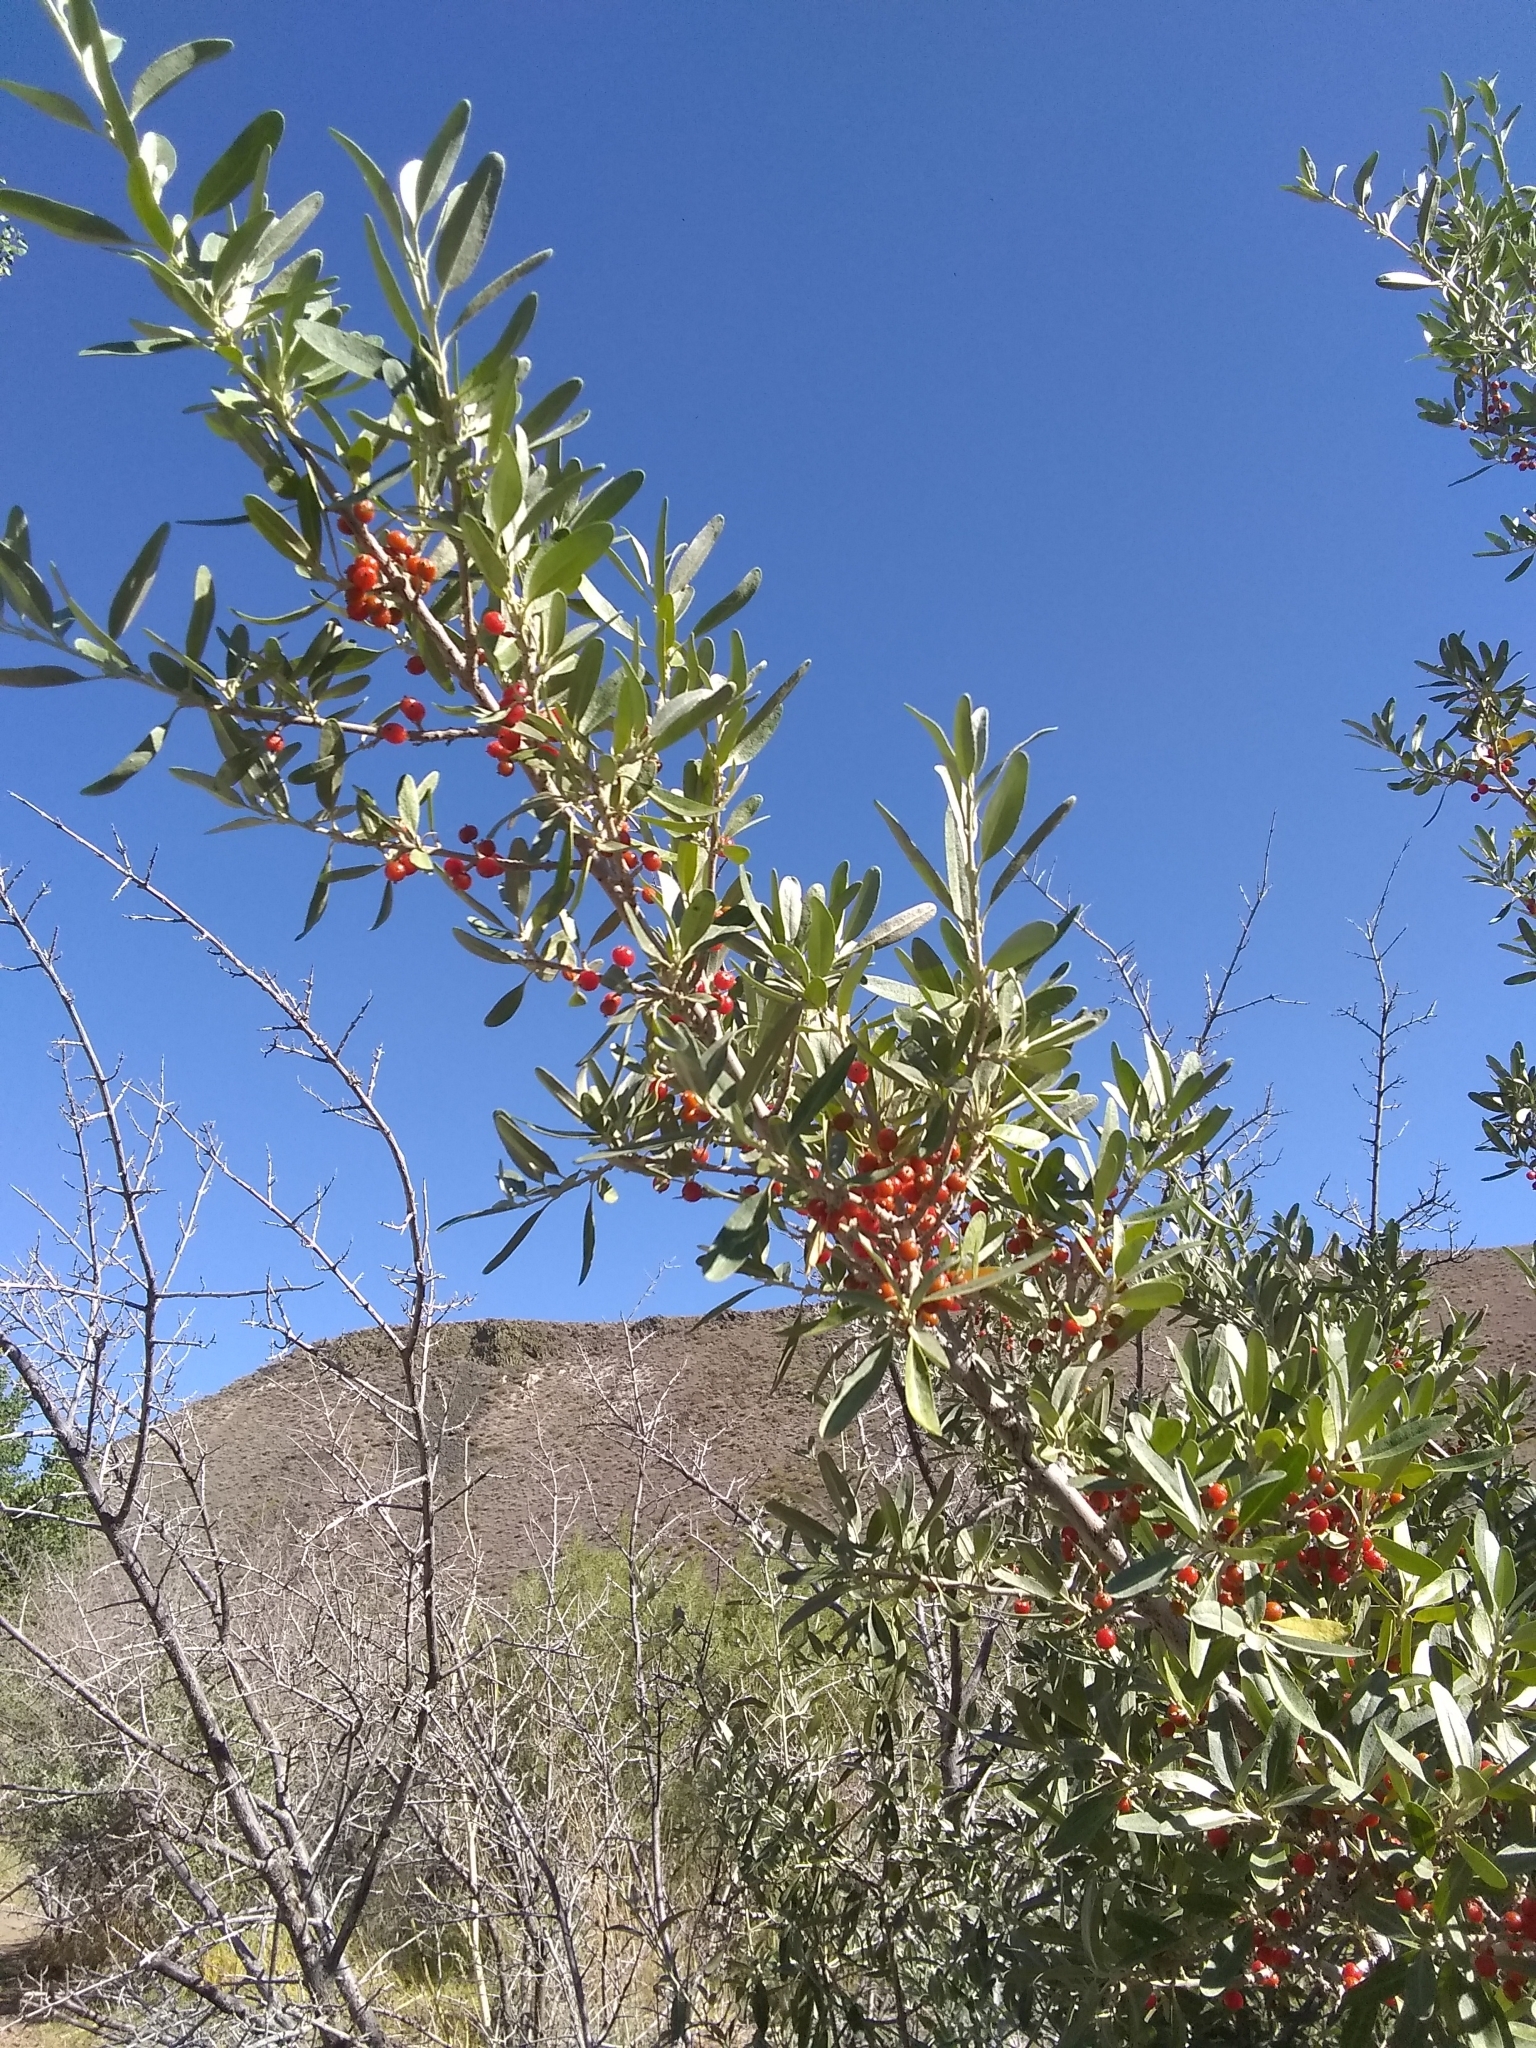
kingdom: Plantae
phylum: Tracheophyta
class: Magnoliopsida
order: Rosales
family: Elaeagnaceae
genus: Shepherdia
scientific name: Shepherdia argentea
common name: Silver buffaloberry
